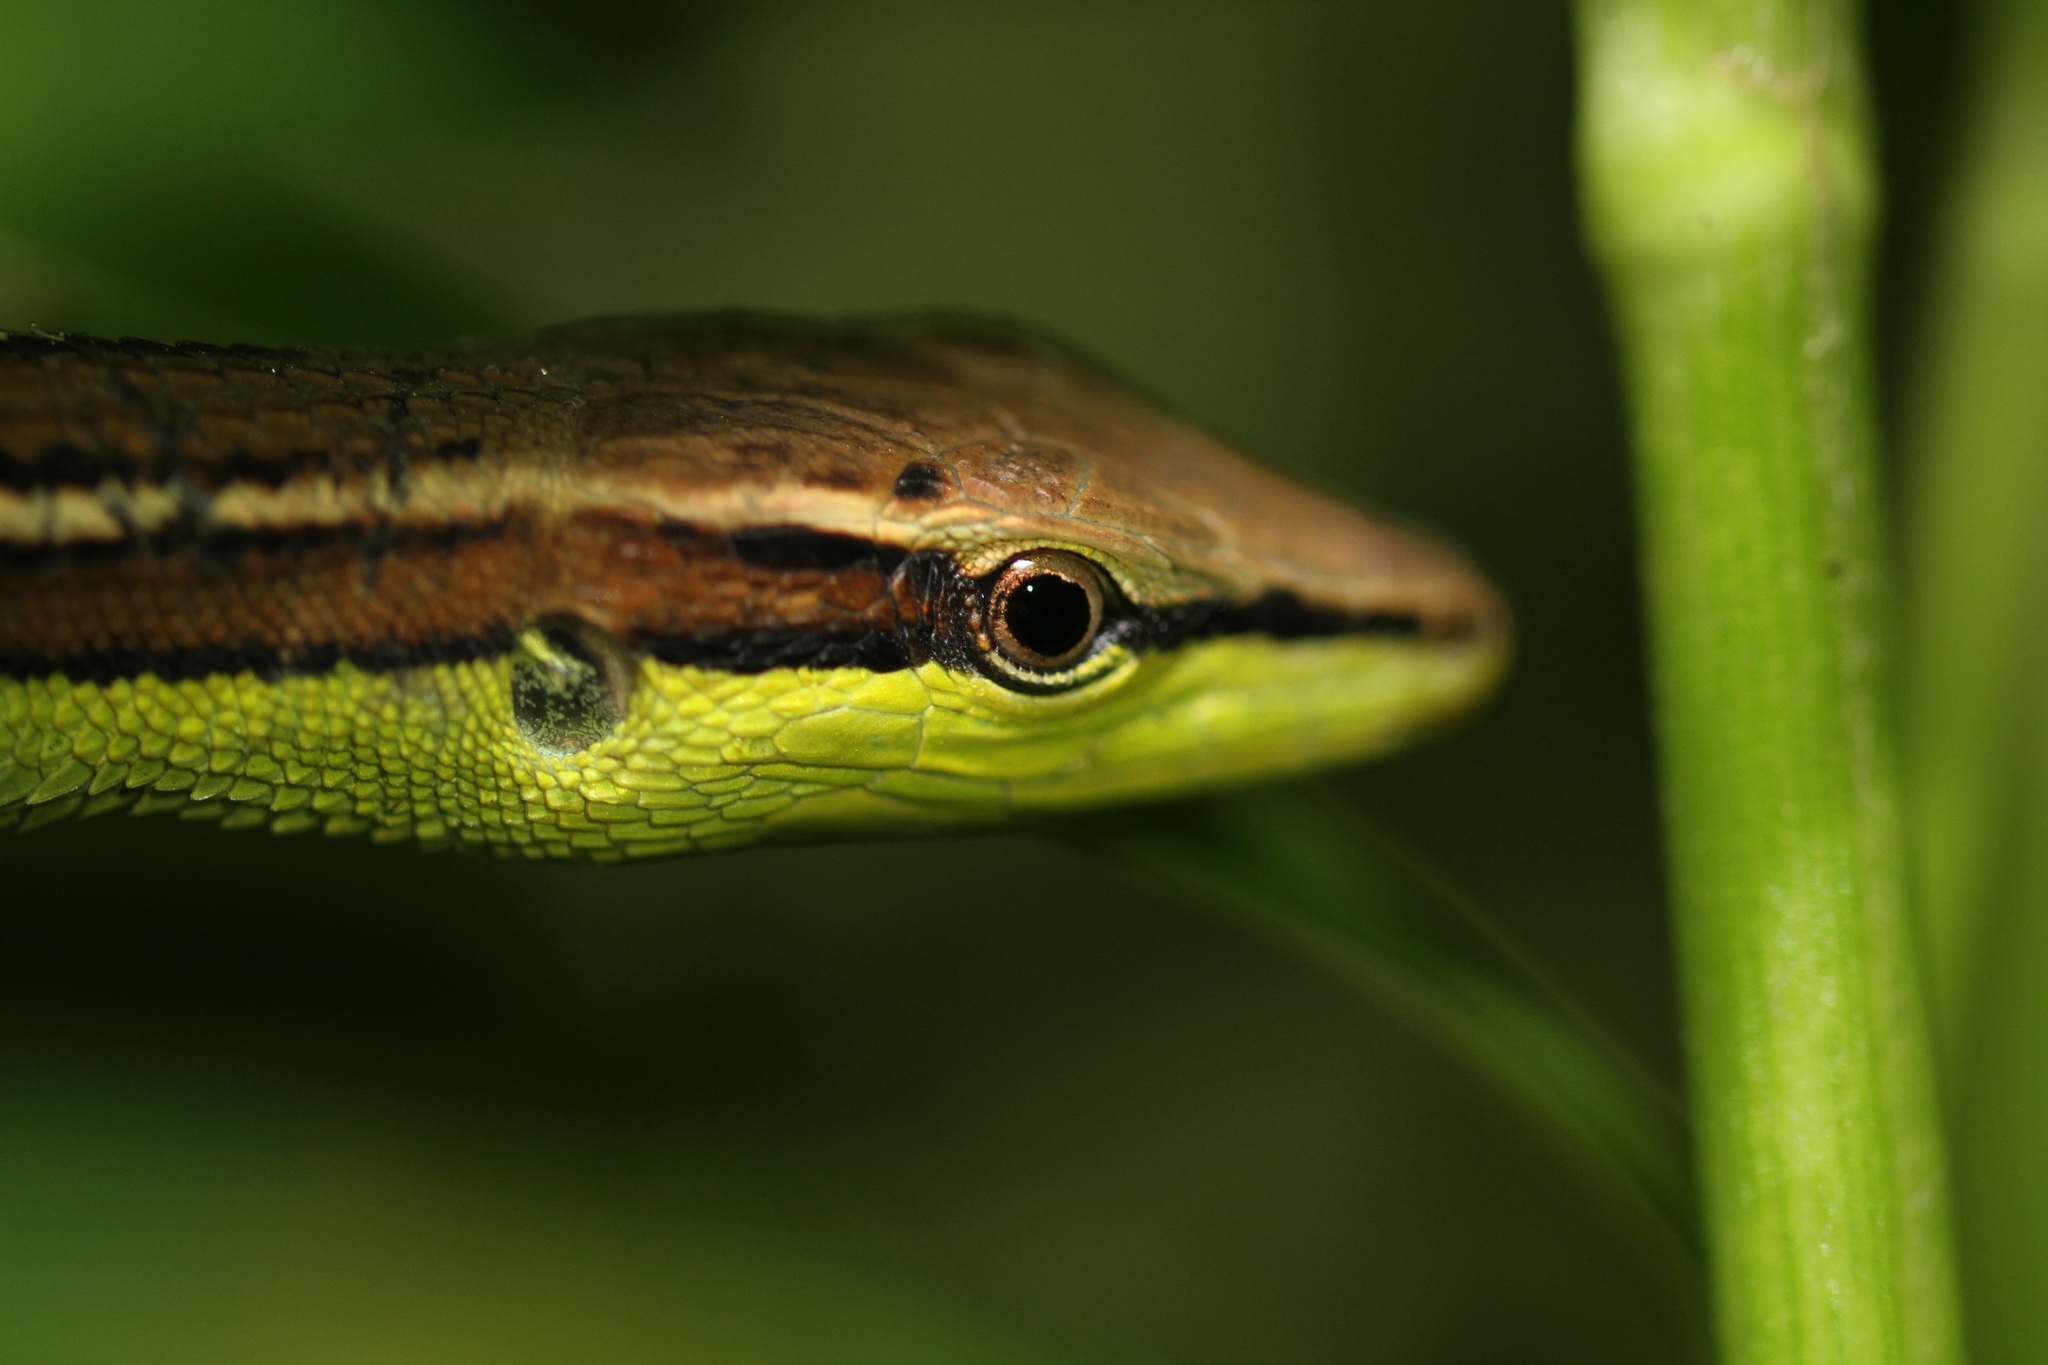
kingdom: Animalia
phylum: Chordata
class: Squamata
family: Lacertidae
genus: Takydromus
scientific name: Takydromus sexlineatus
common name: Asian grass lizard
